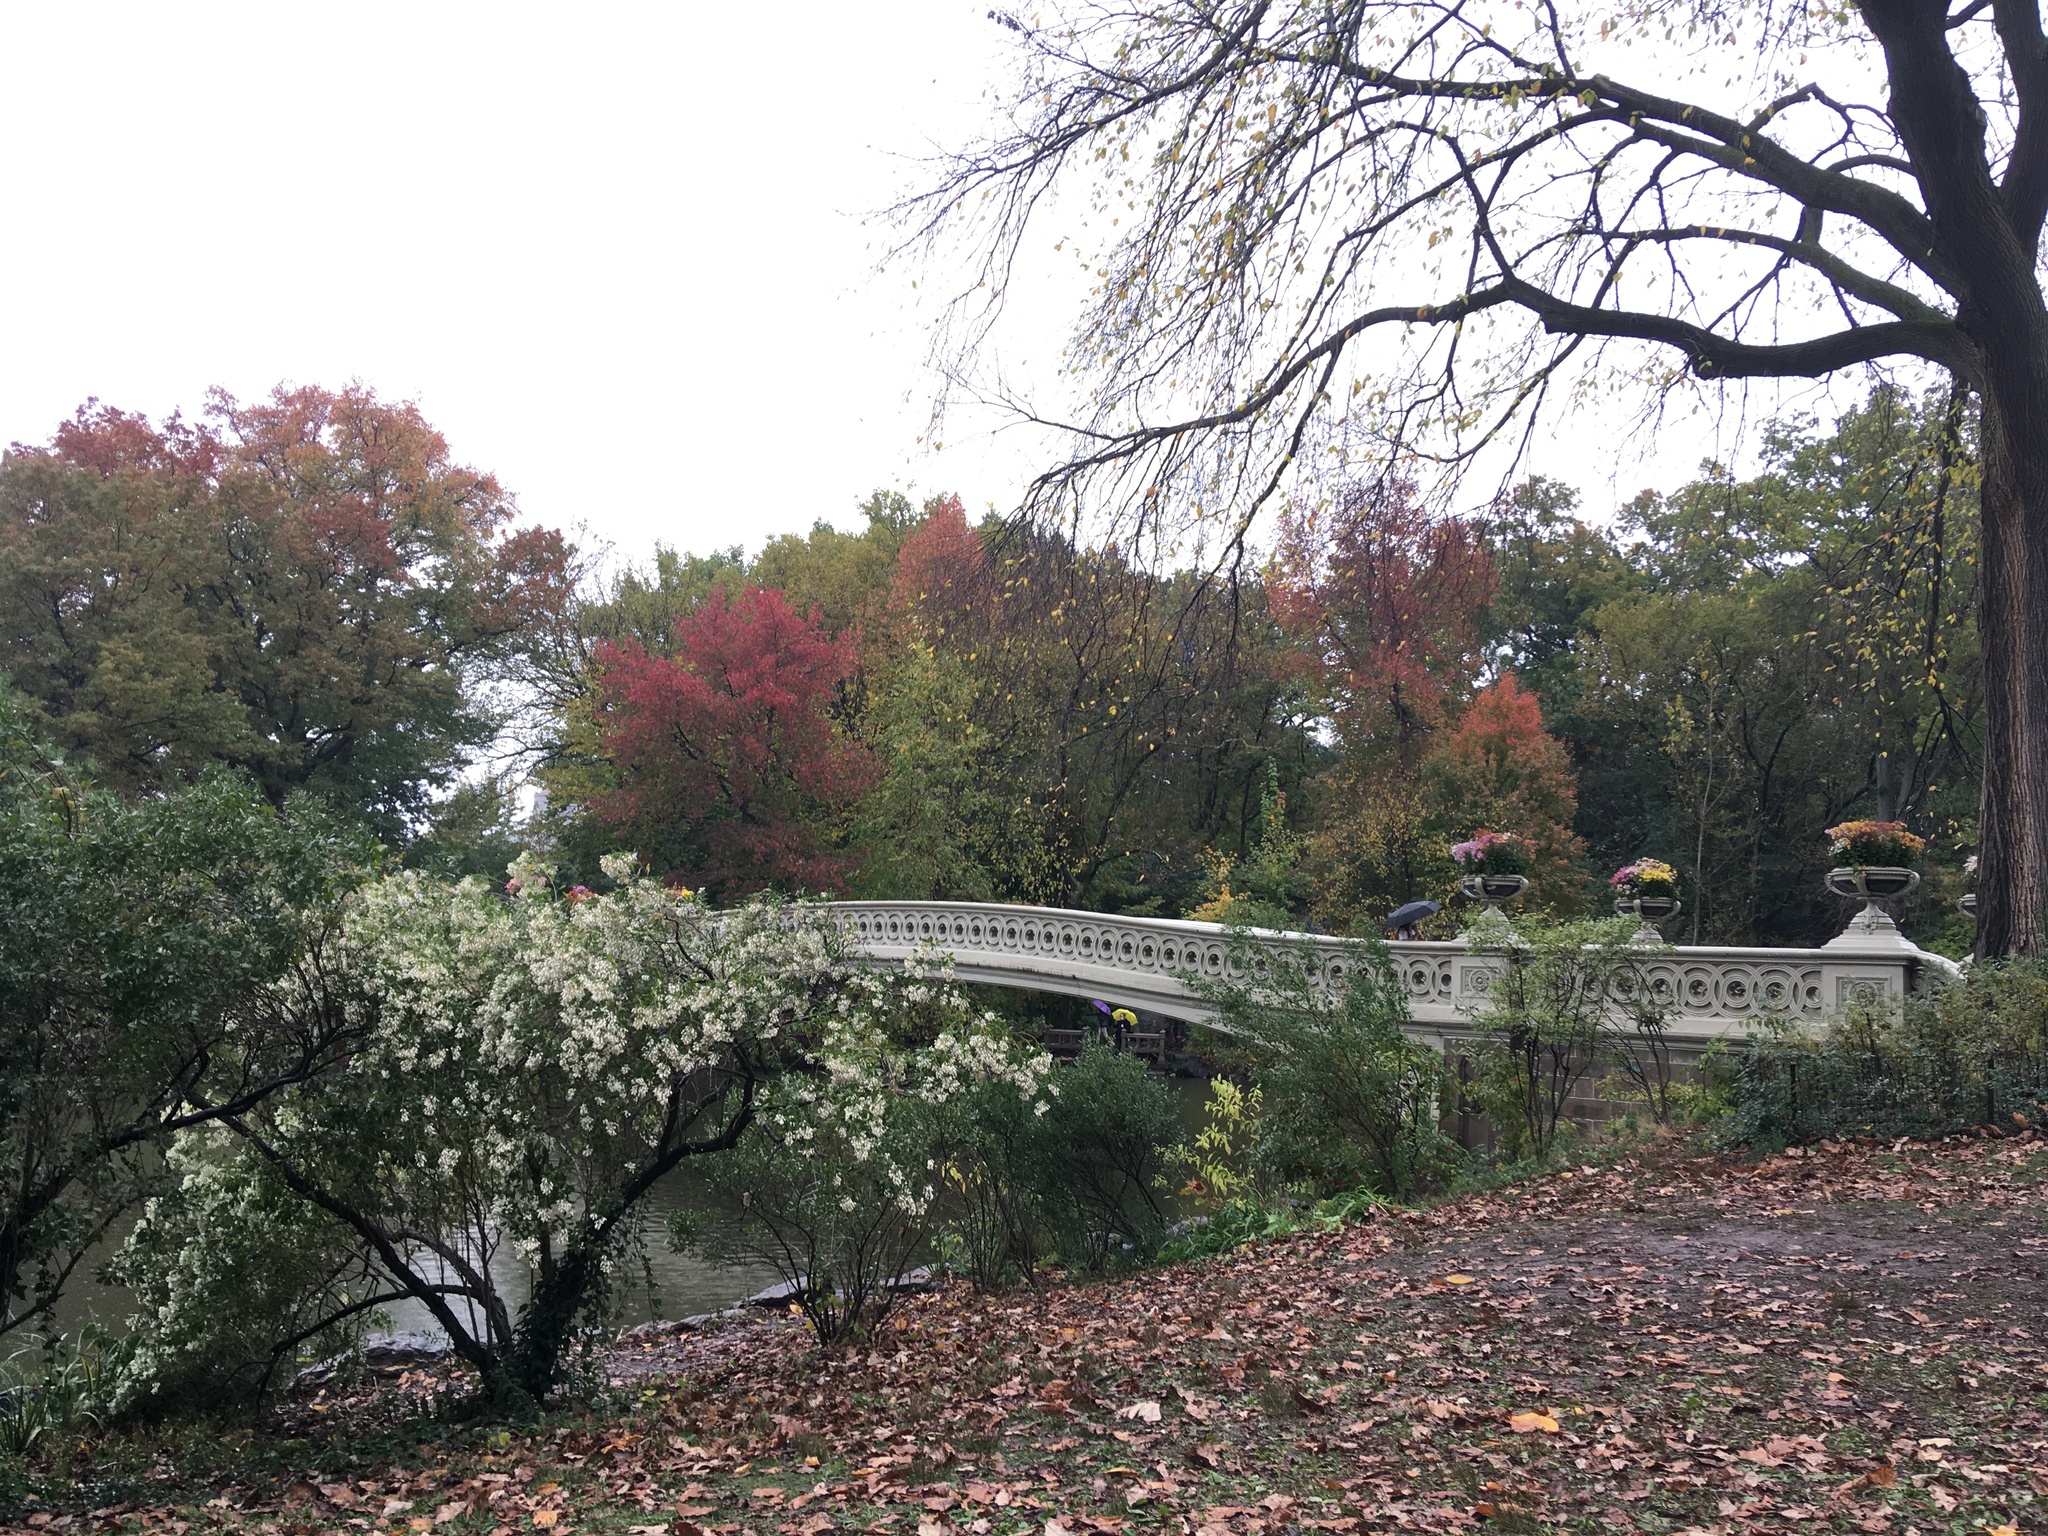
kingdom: Plantae
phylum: Tracheophyta
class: Magnoliopsida
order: Asterales
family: Asteraceae
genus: Baccharis
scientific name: Baccharis halimifolia
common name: Eastern baccharis
